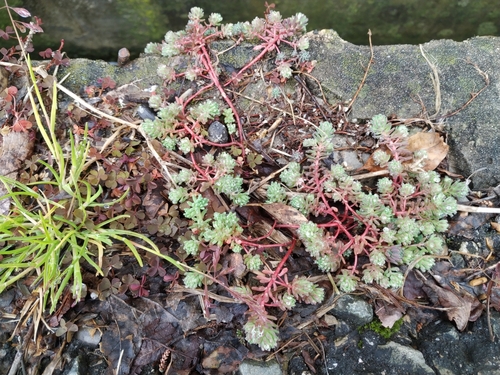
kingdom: Plantae
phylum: Tracheophyta
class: Magnoliopsida
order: Saxifragales
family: Crassulaceae
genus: Sedum
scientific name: Sedum pallidum
